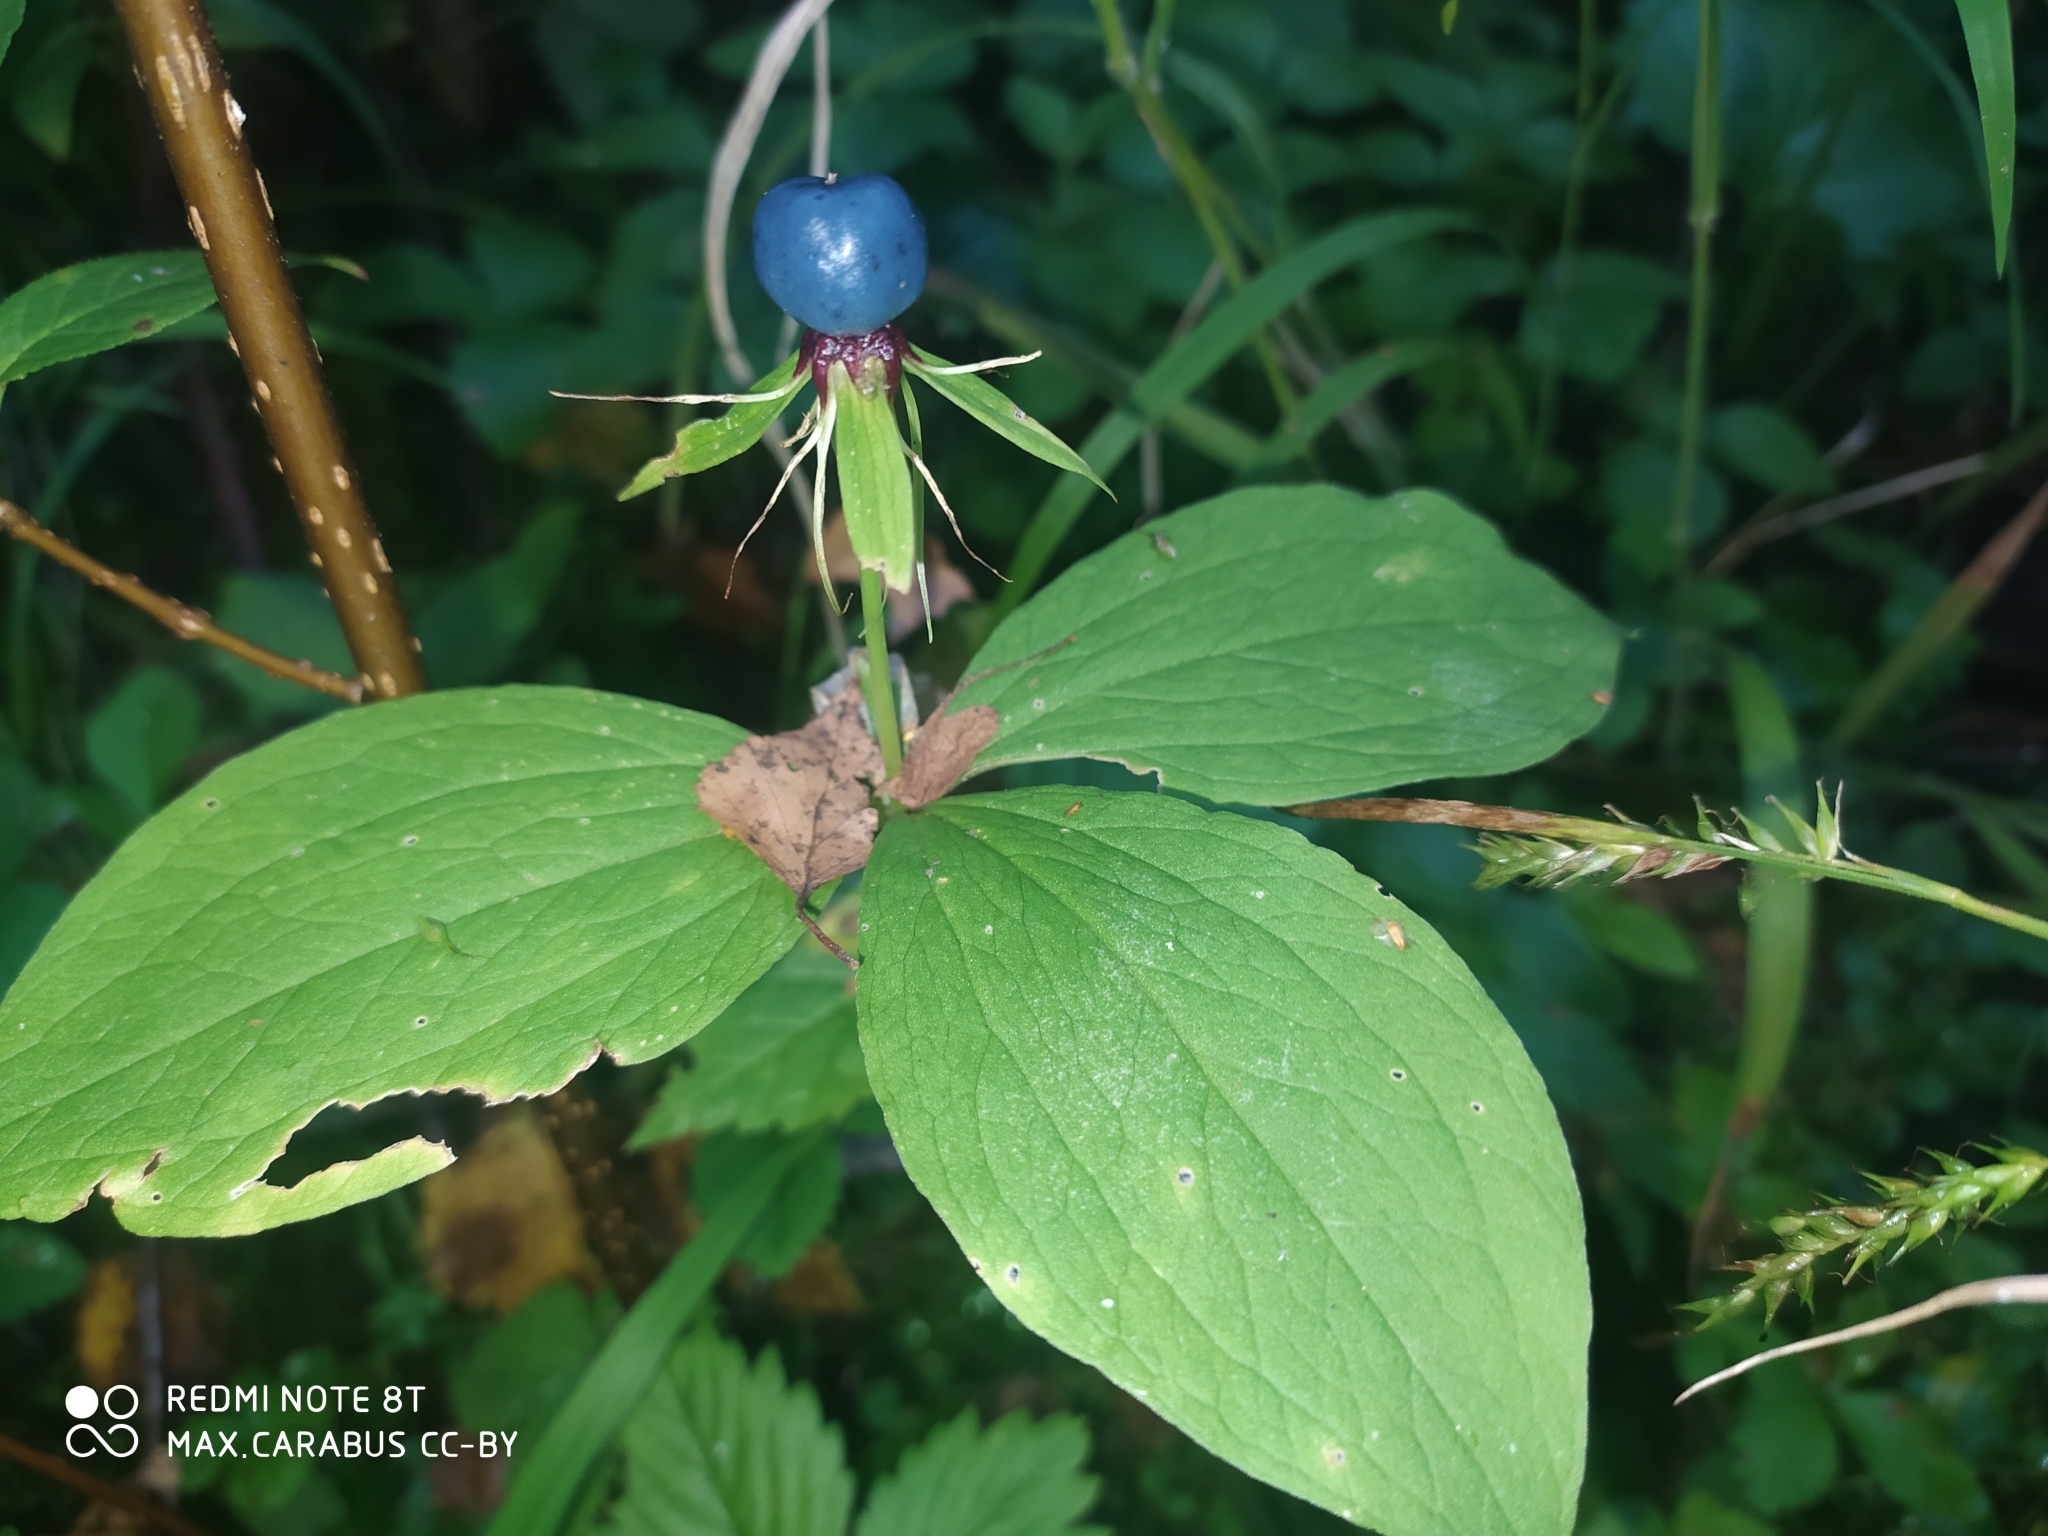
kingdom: Plantae
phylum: Tracheophyta
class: Liliopsida
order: Liliales
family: Melanthiaceae
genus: Paris
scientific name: Paris quadrifolia
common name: Herb-paris
